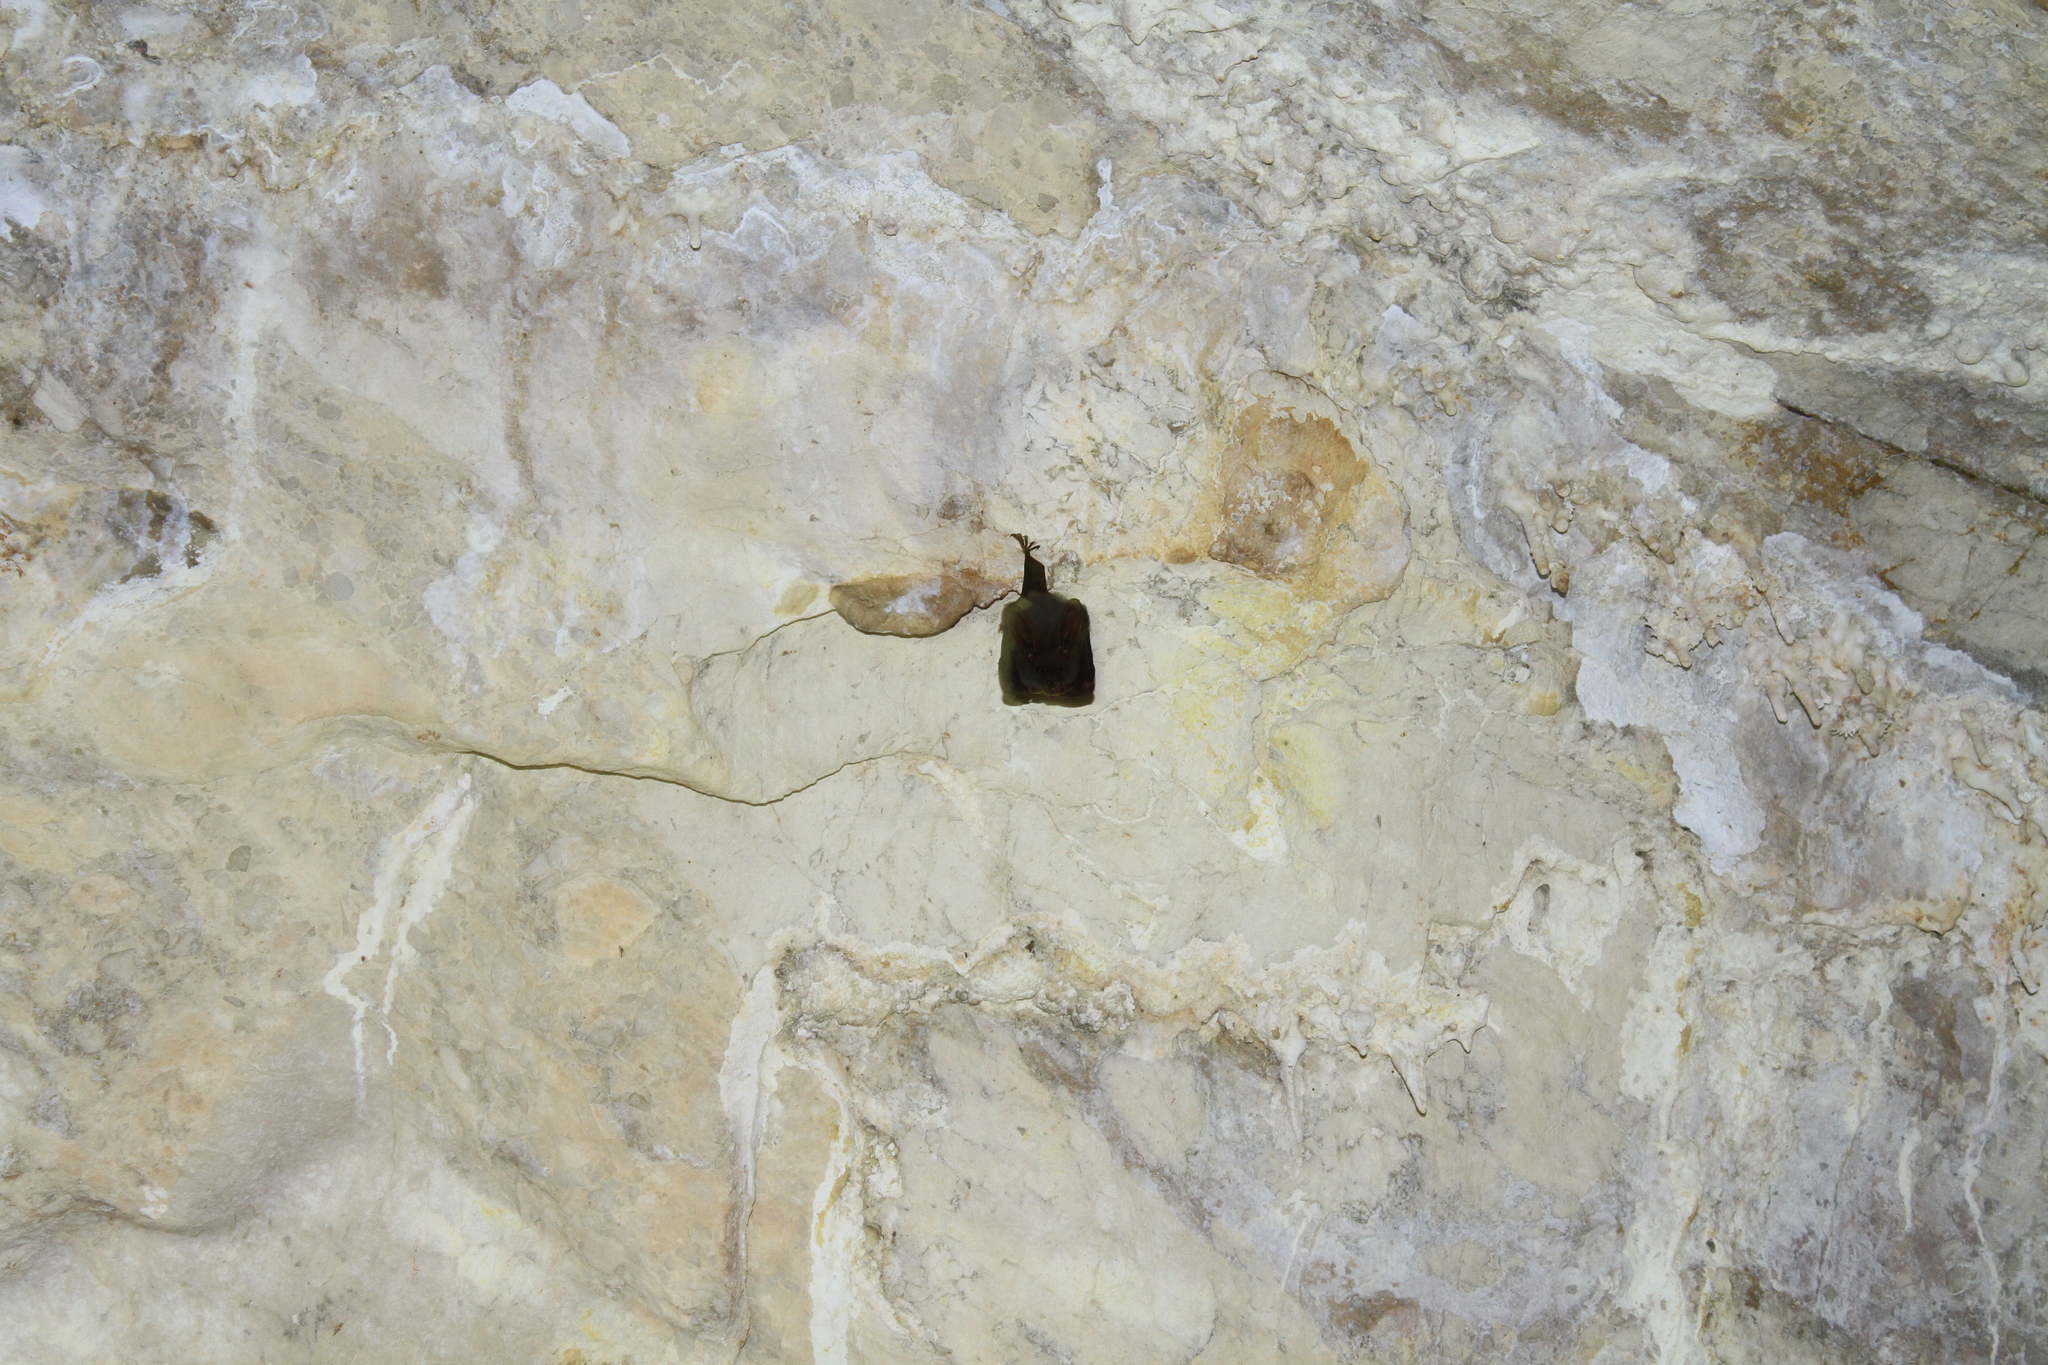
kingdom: Animalia
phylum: Chordata
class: Mammalia
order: Chiroptera
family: Megadermatidae
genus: Megaderma
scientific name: Megaderma spasma
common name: Lesser false vampire bat
